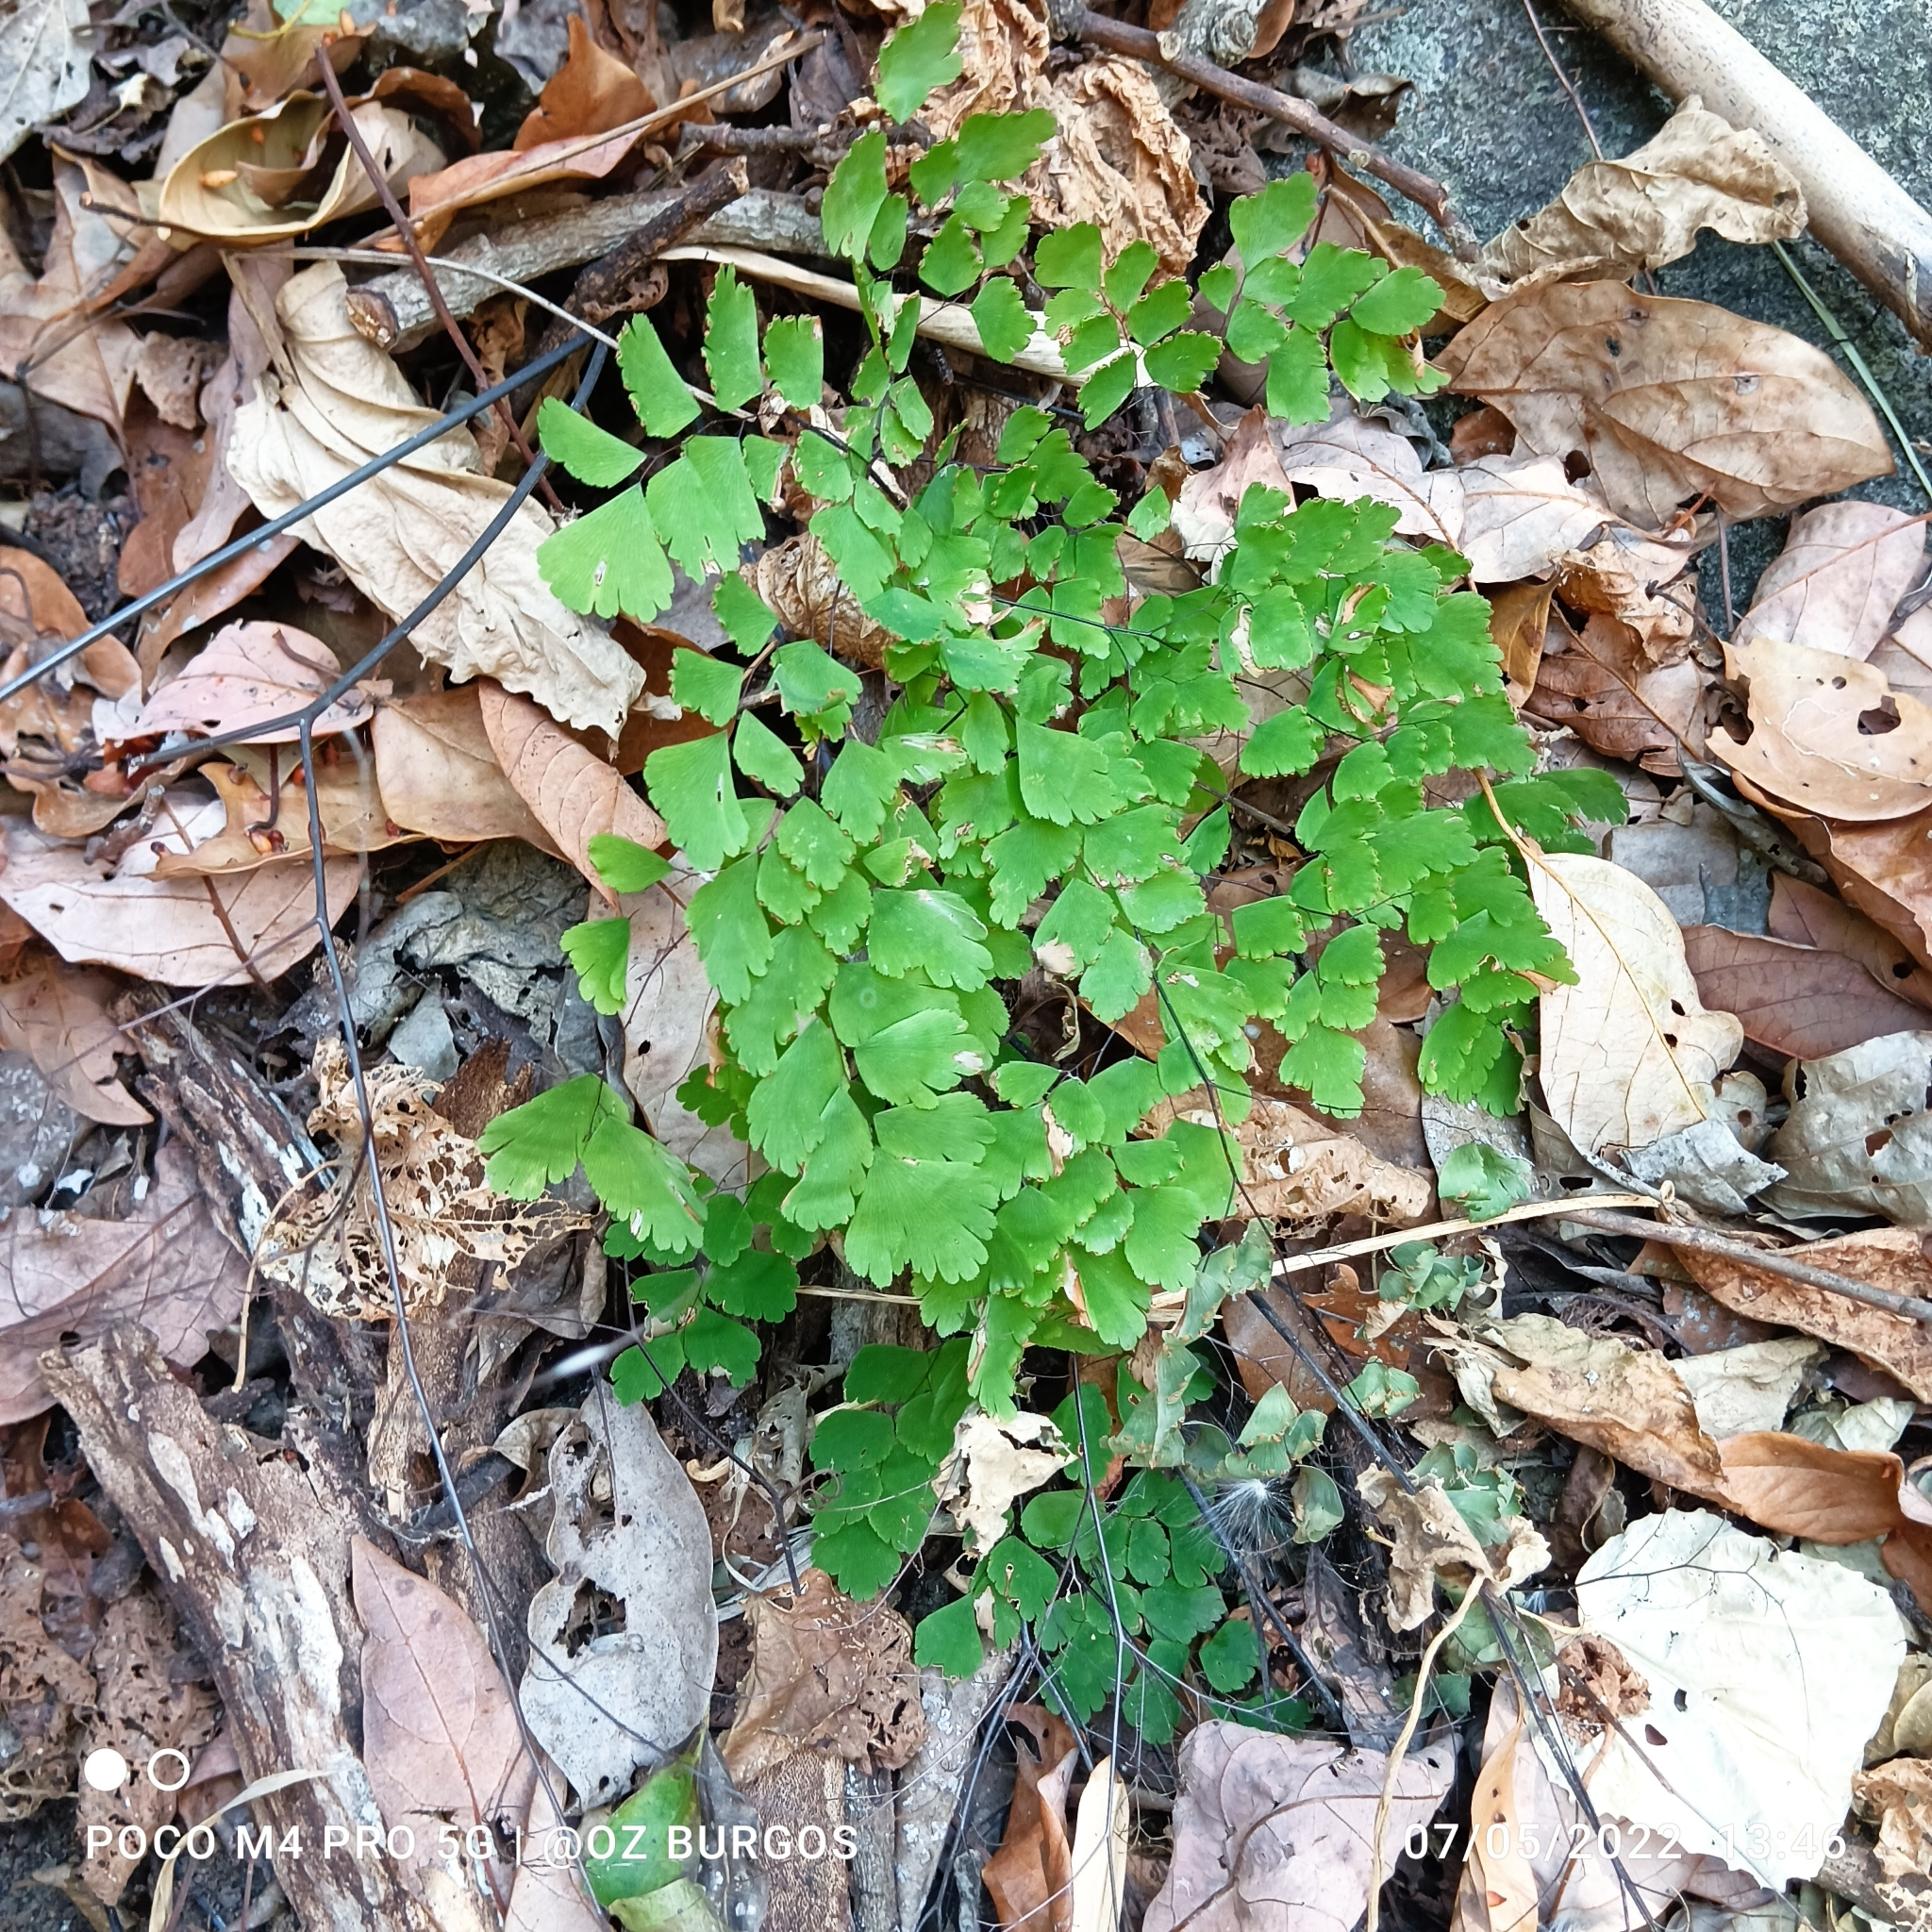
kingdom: Plantae
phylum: Tracheophyta
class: Polypodiopsida
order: Polypodiales
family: Pteridaceae
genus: Adiantum
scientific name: Adiantum capillus-veneris
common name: Maidenhair fern
